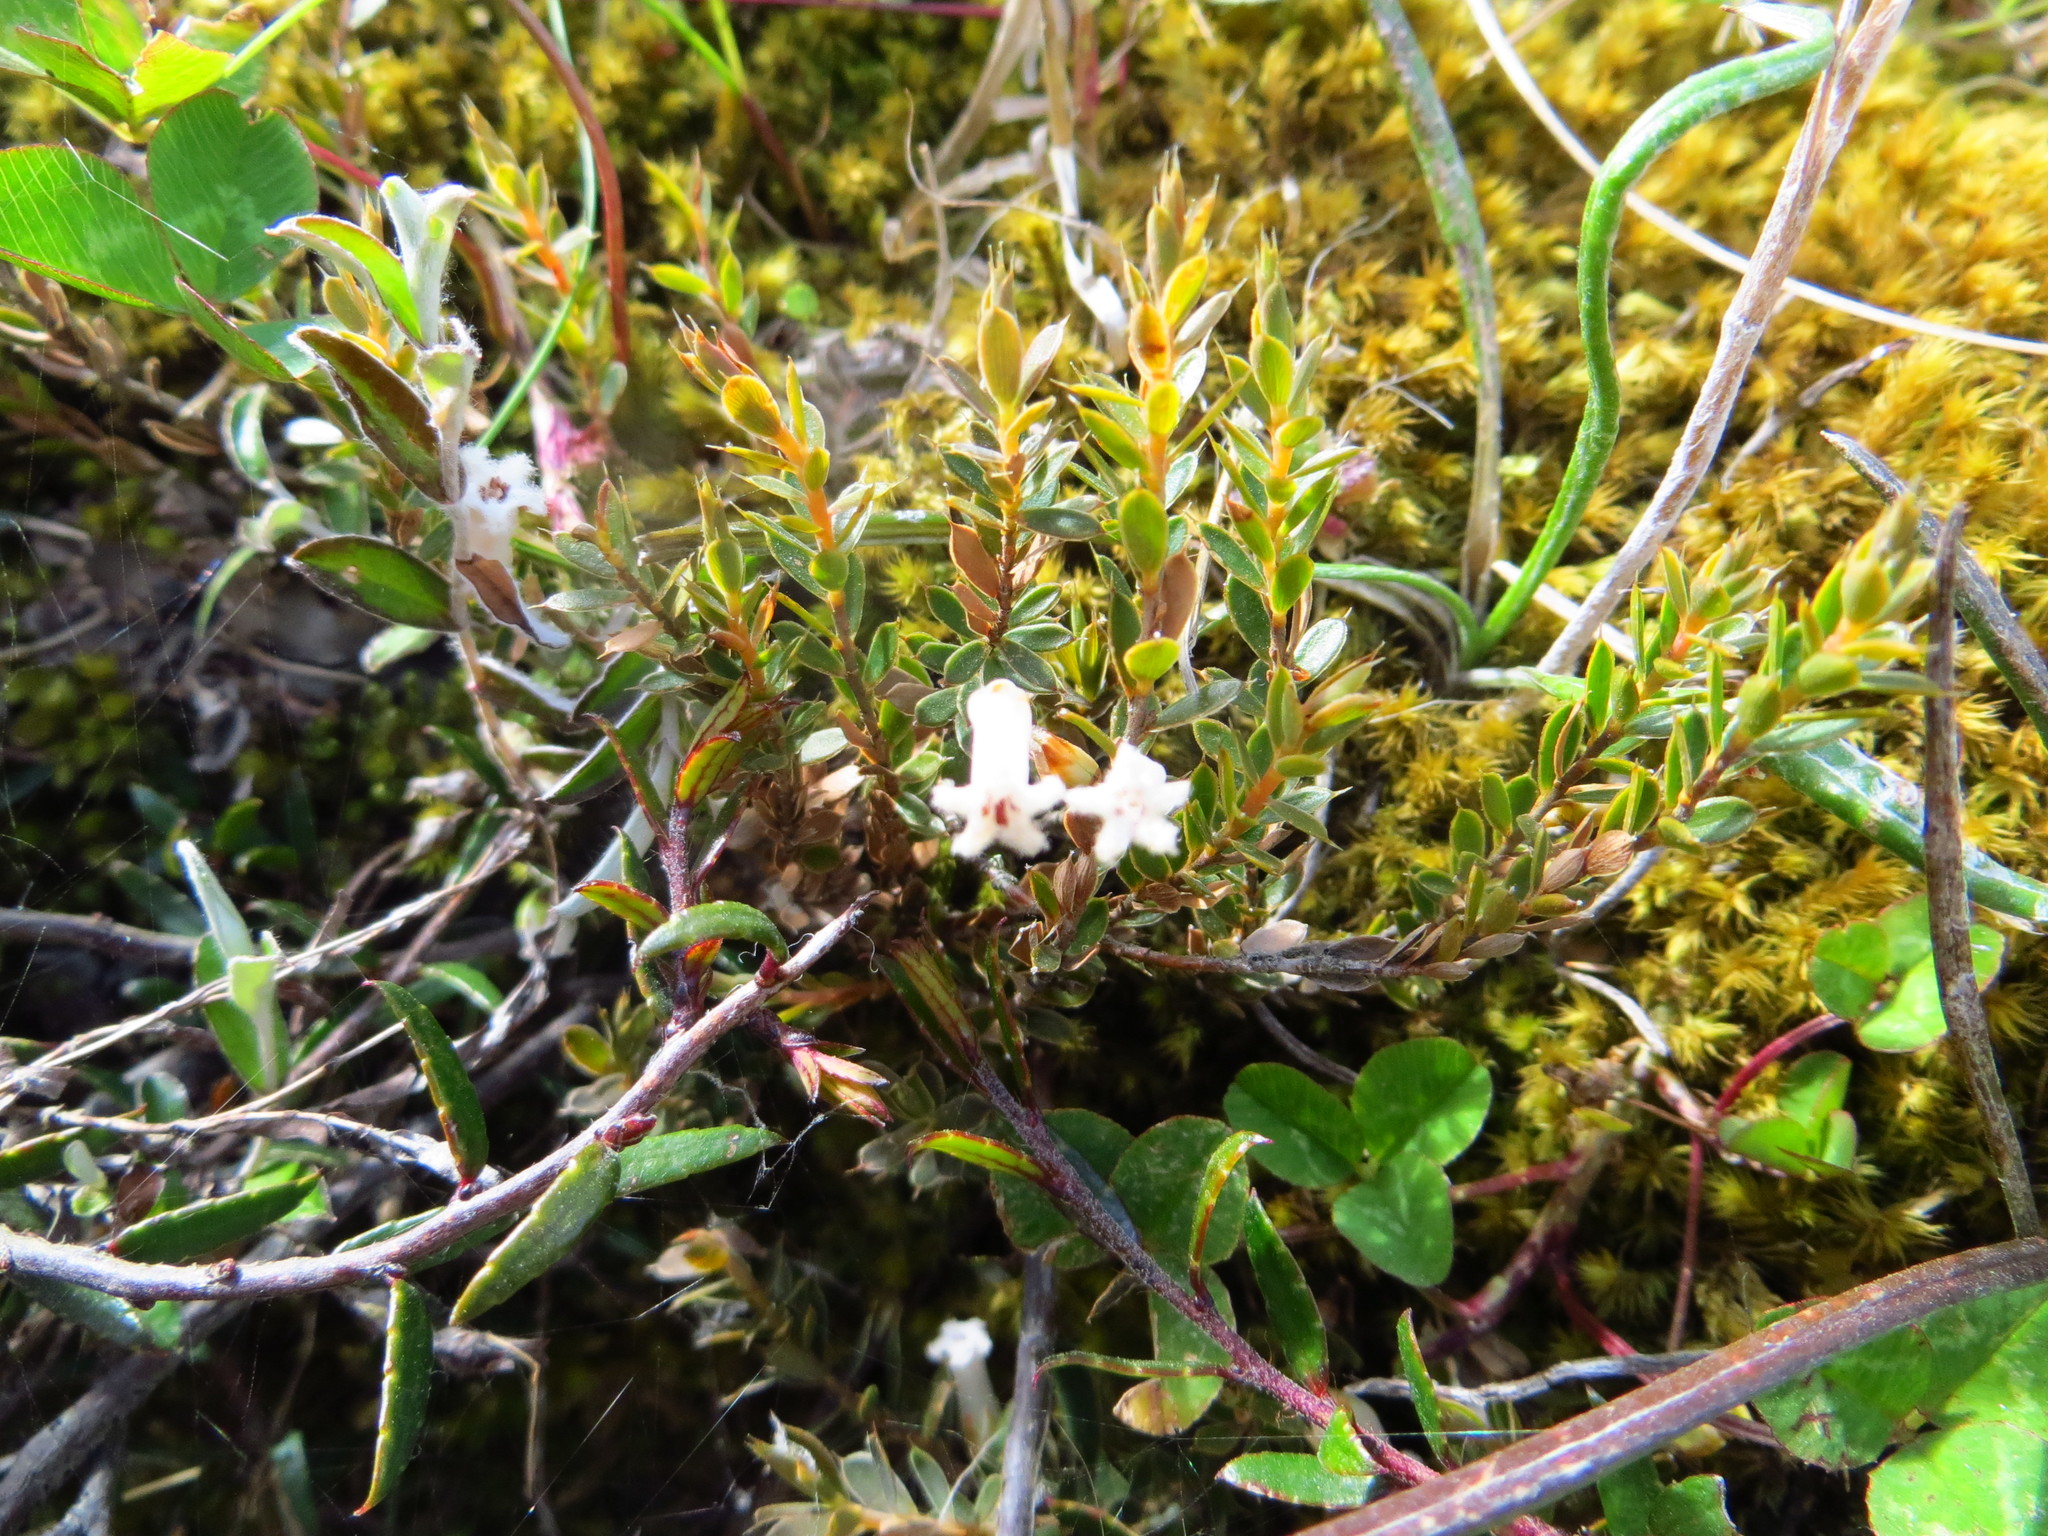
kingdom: Plantae
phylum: Tracheophyta
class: Magnoliopsida
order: Ericales
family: Ericaceae
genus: Styphelia
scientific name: Styphelia nesophila
